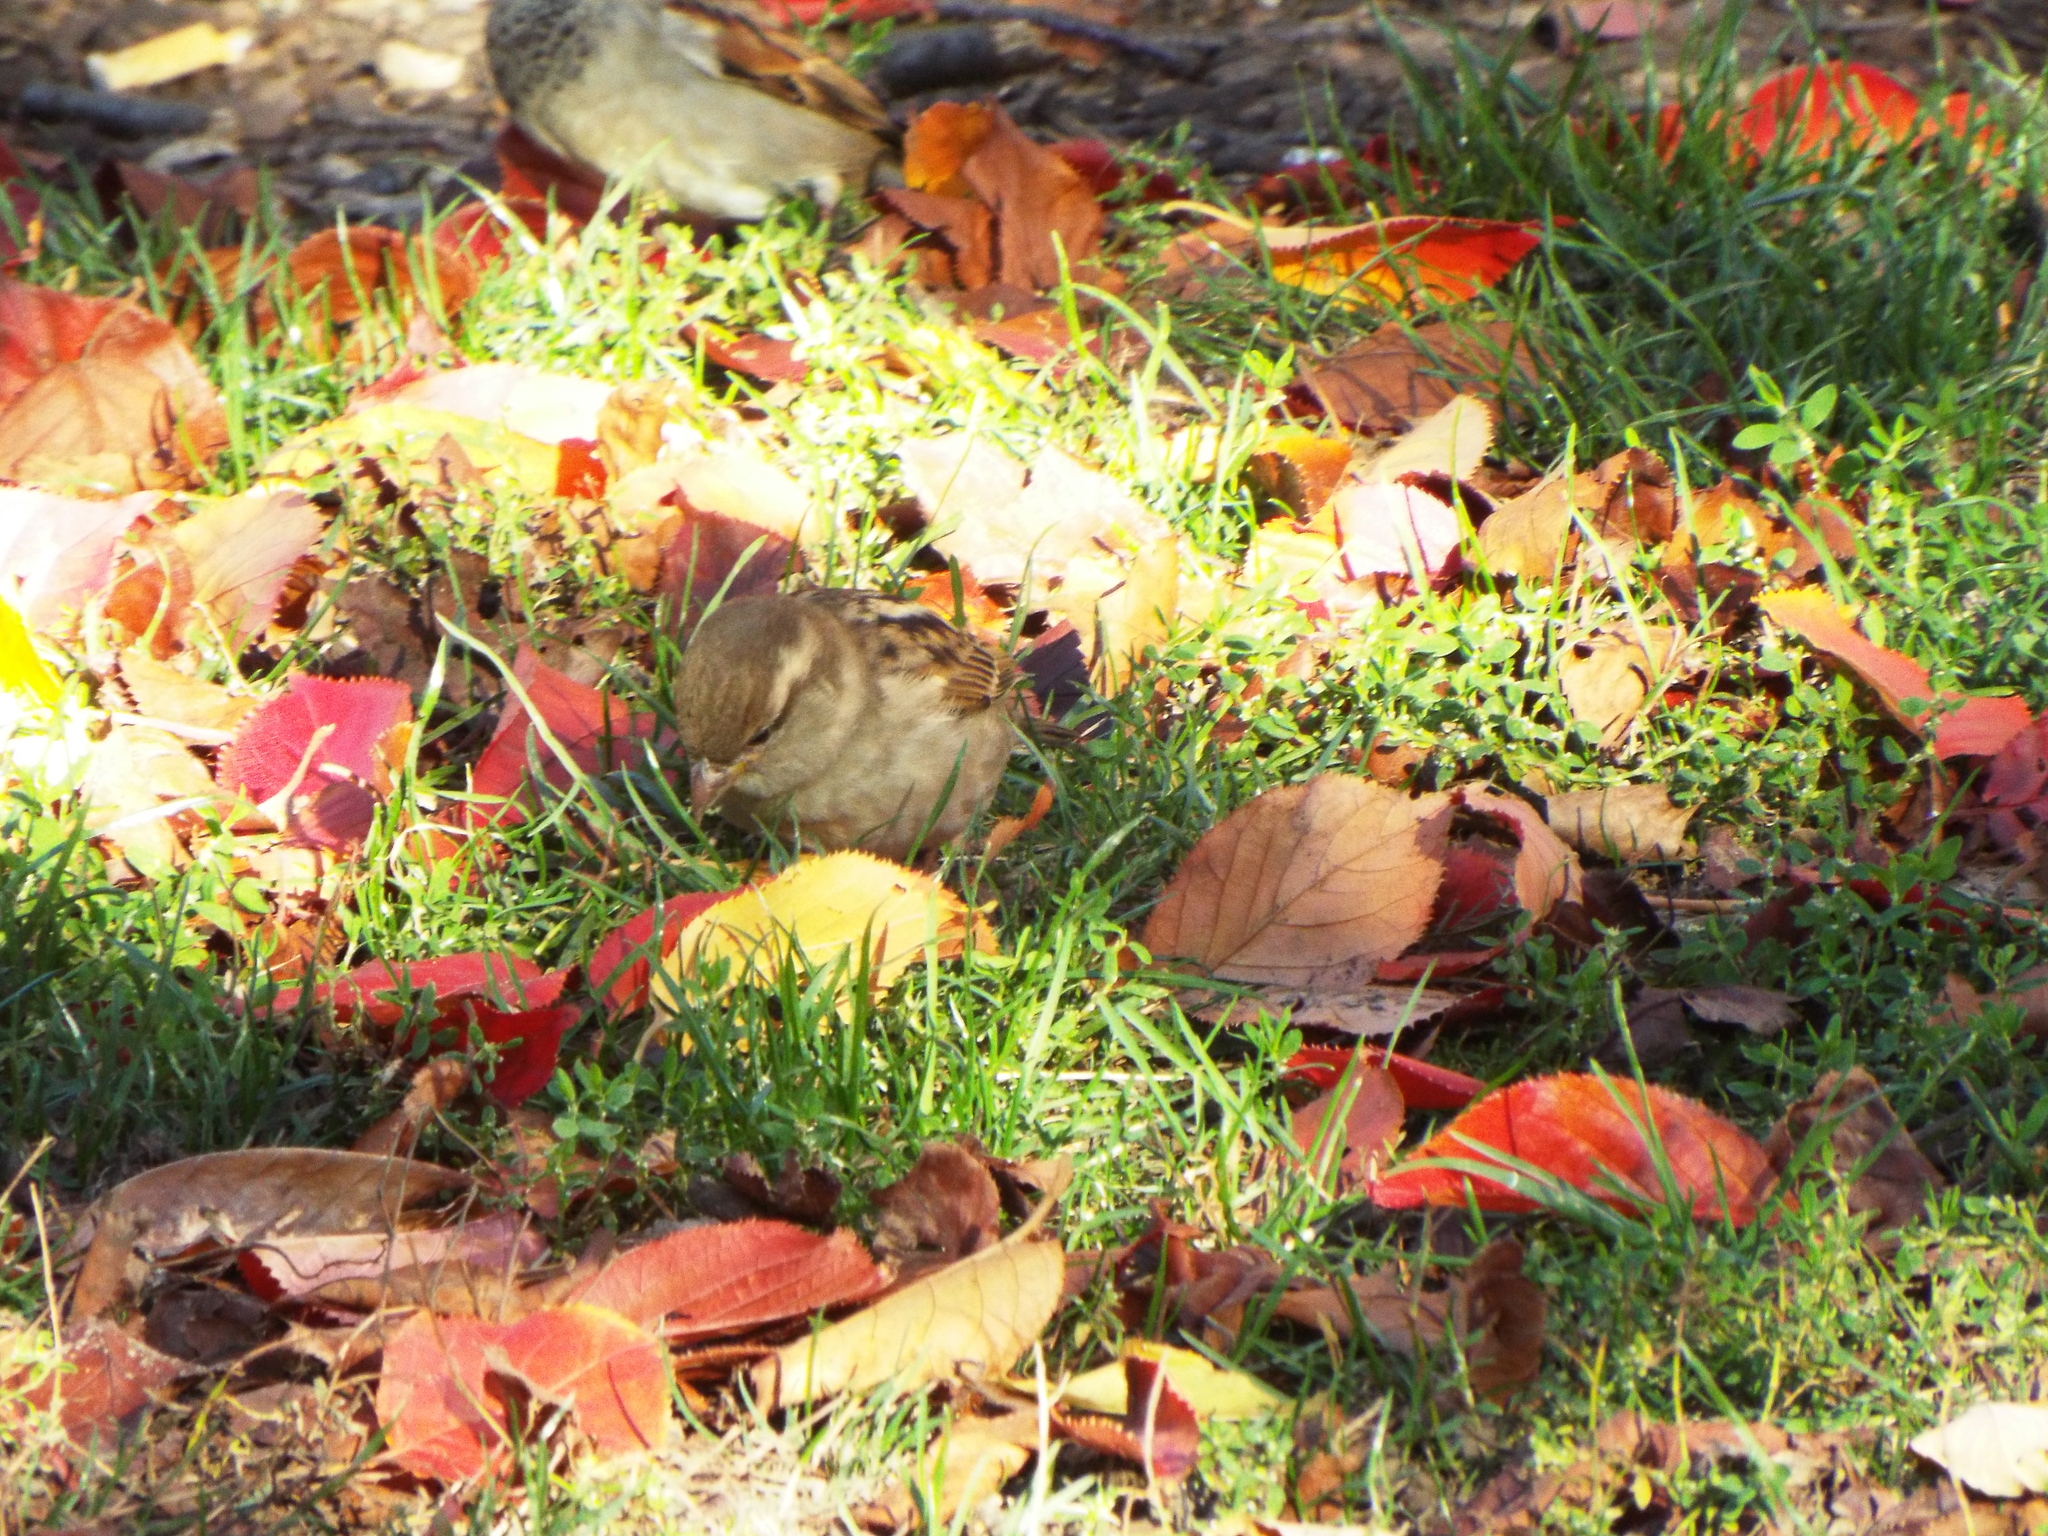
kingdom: Animalia
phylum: Chordata
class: Aves
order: Passeriformes
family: Passeridae
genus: Passer
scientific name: Passer domesticus
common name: House sparrow
